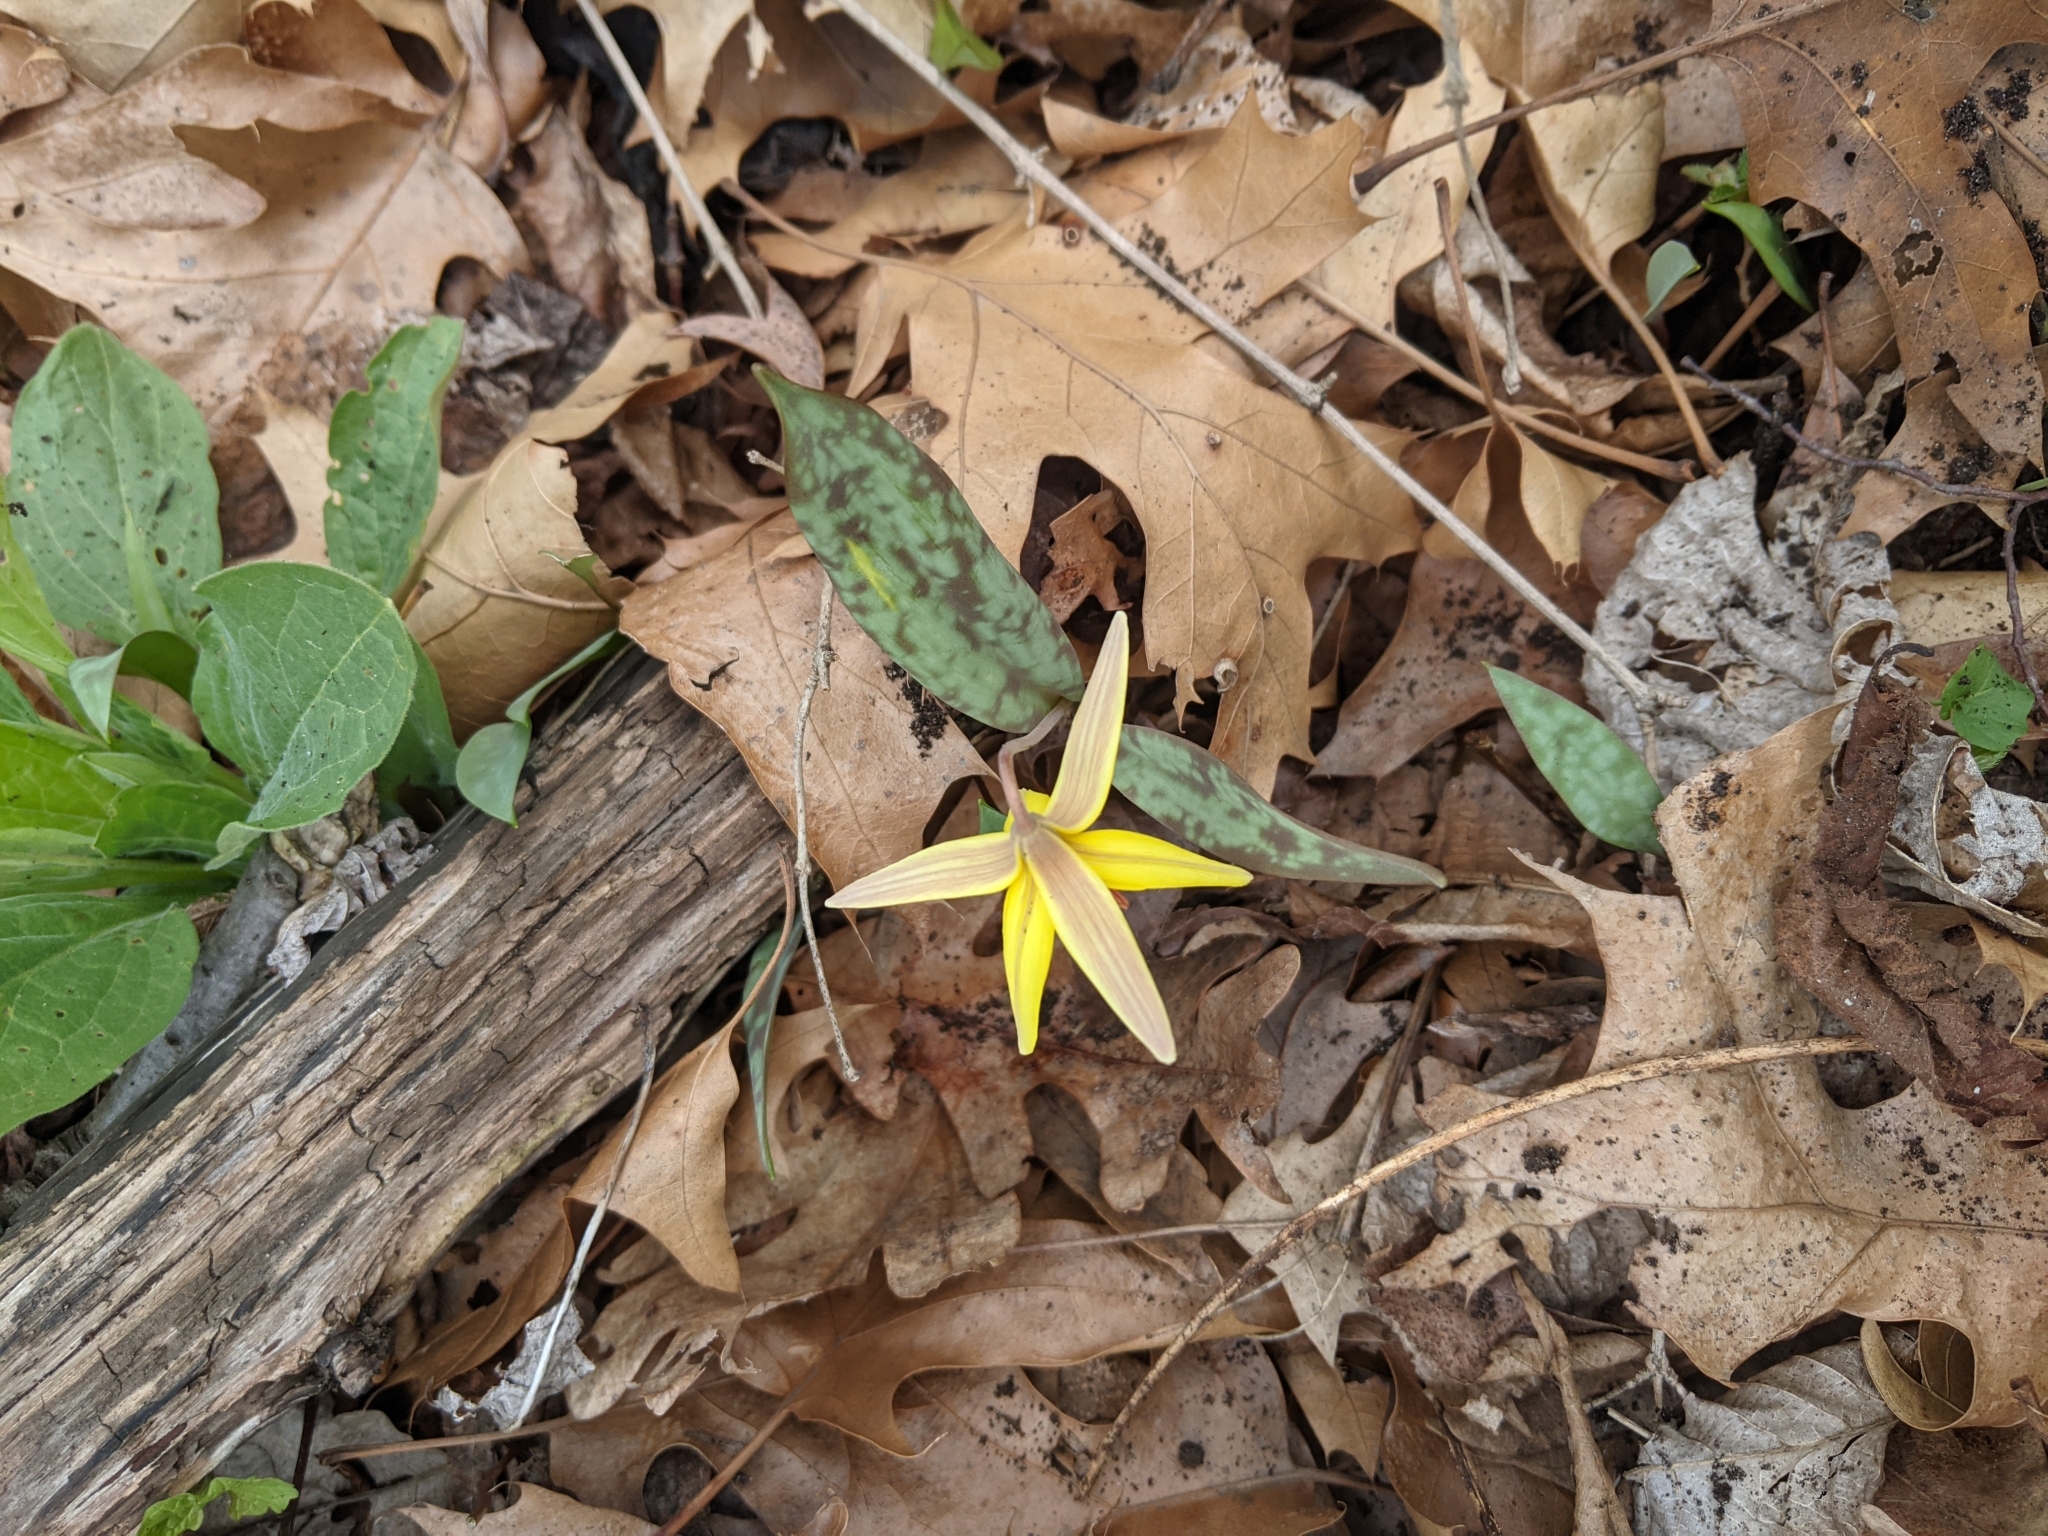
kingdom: Plantae
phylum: Tracheophyta
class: Liliopsida
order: Liliales
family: Liliaceae
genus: Erythronium
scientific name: Erythronium americanum
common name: Yellow adder's-tongue
